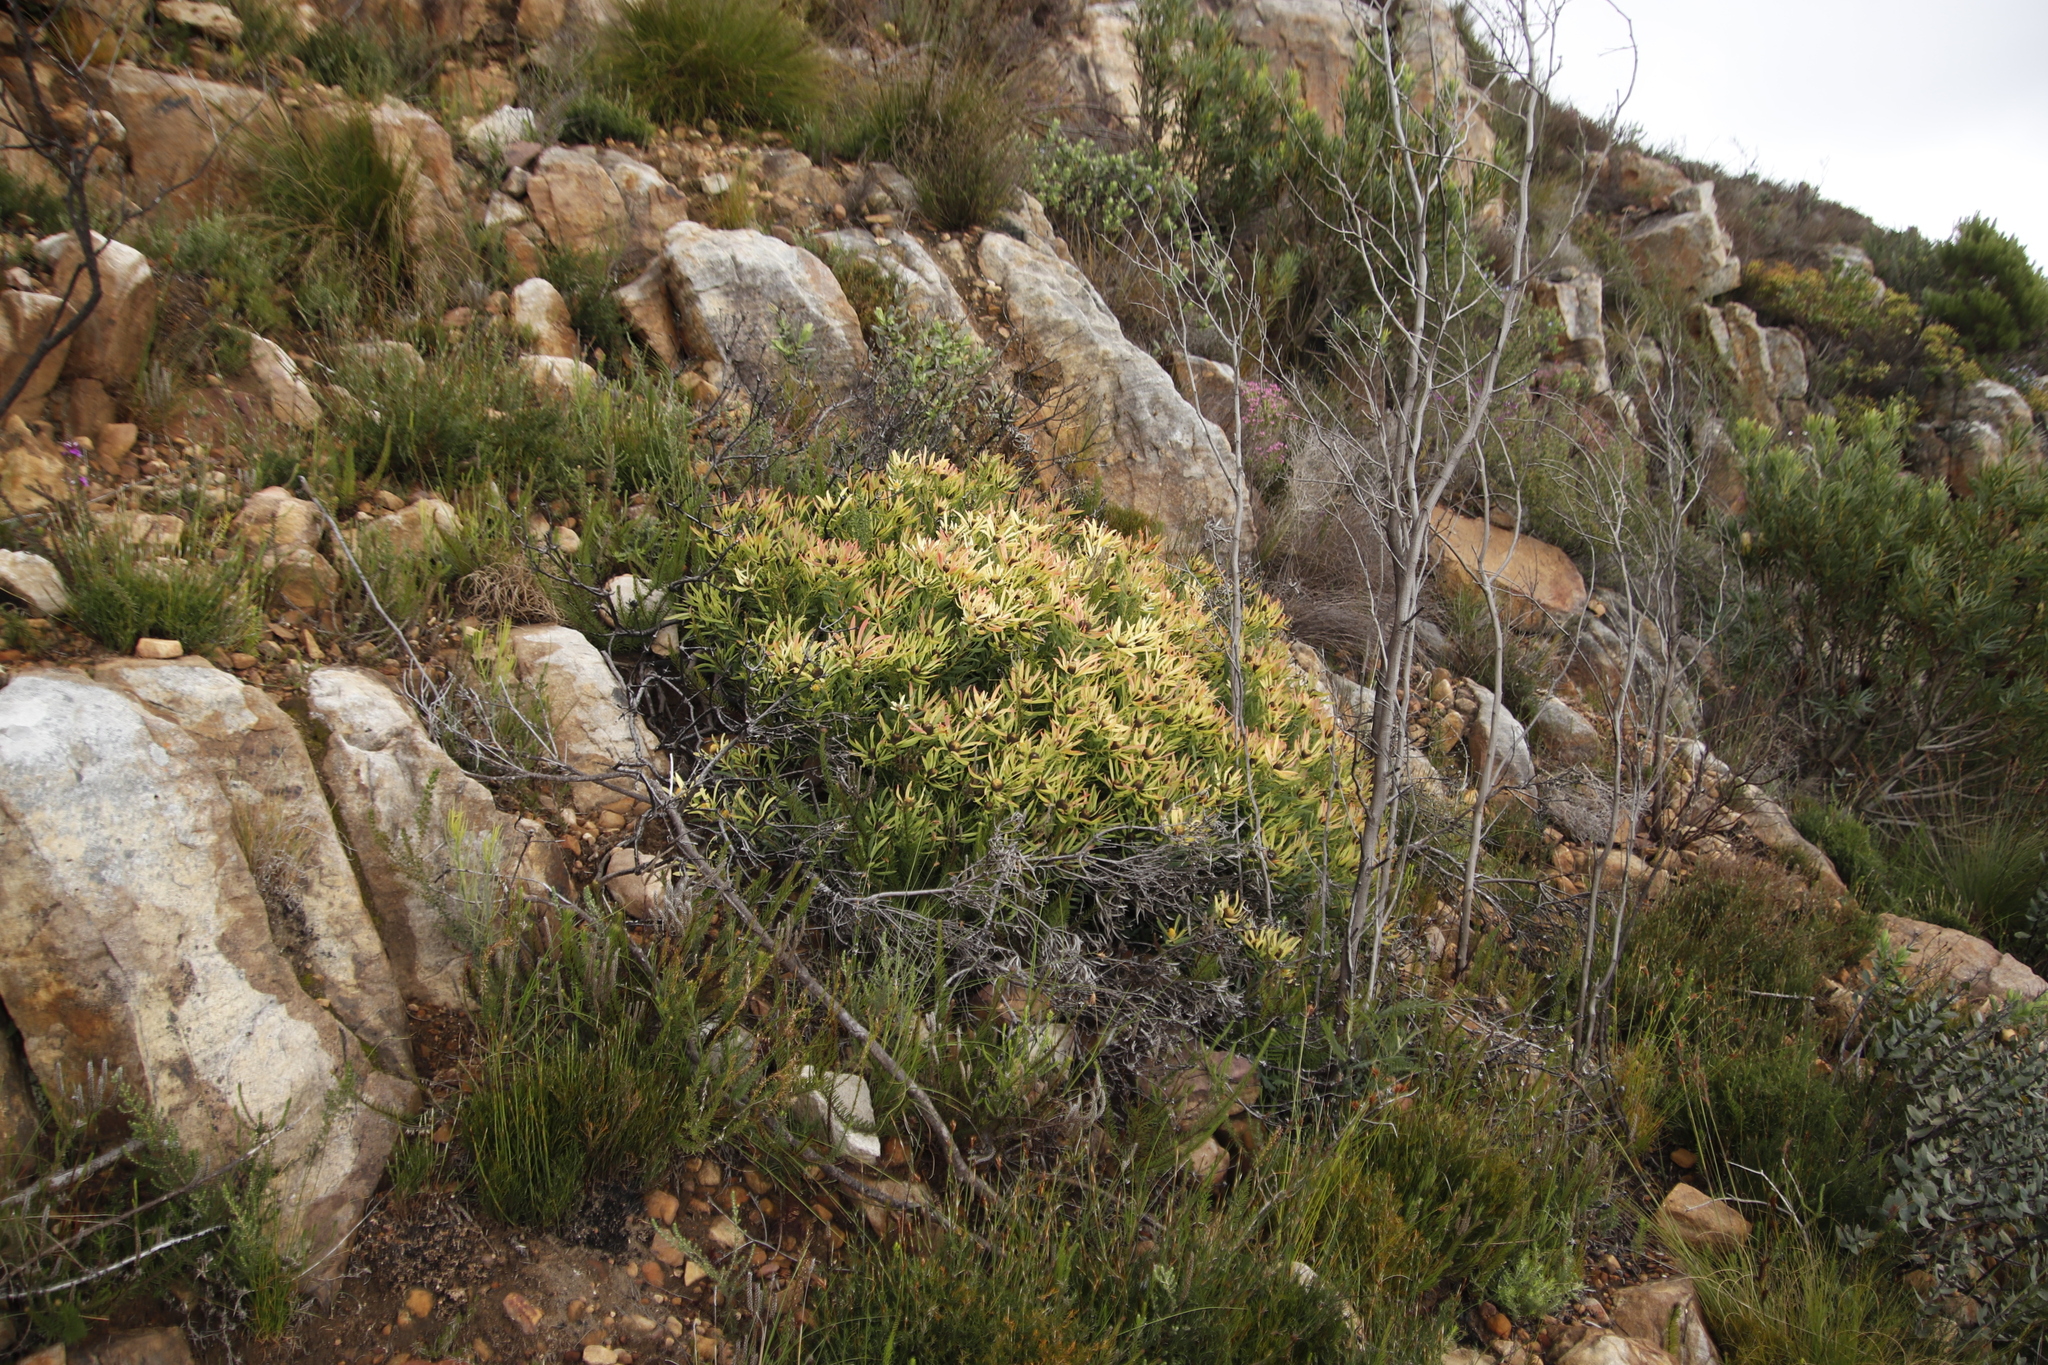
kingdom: Plantae
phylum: Tracheophyta
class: Magnoliopsida
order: Proteales
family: Proteaceae
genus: Leucadendron
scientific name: Leucadendron salignum
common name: Common sunshine conebush
